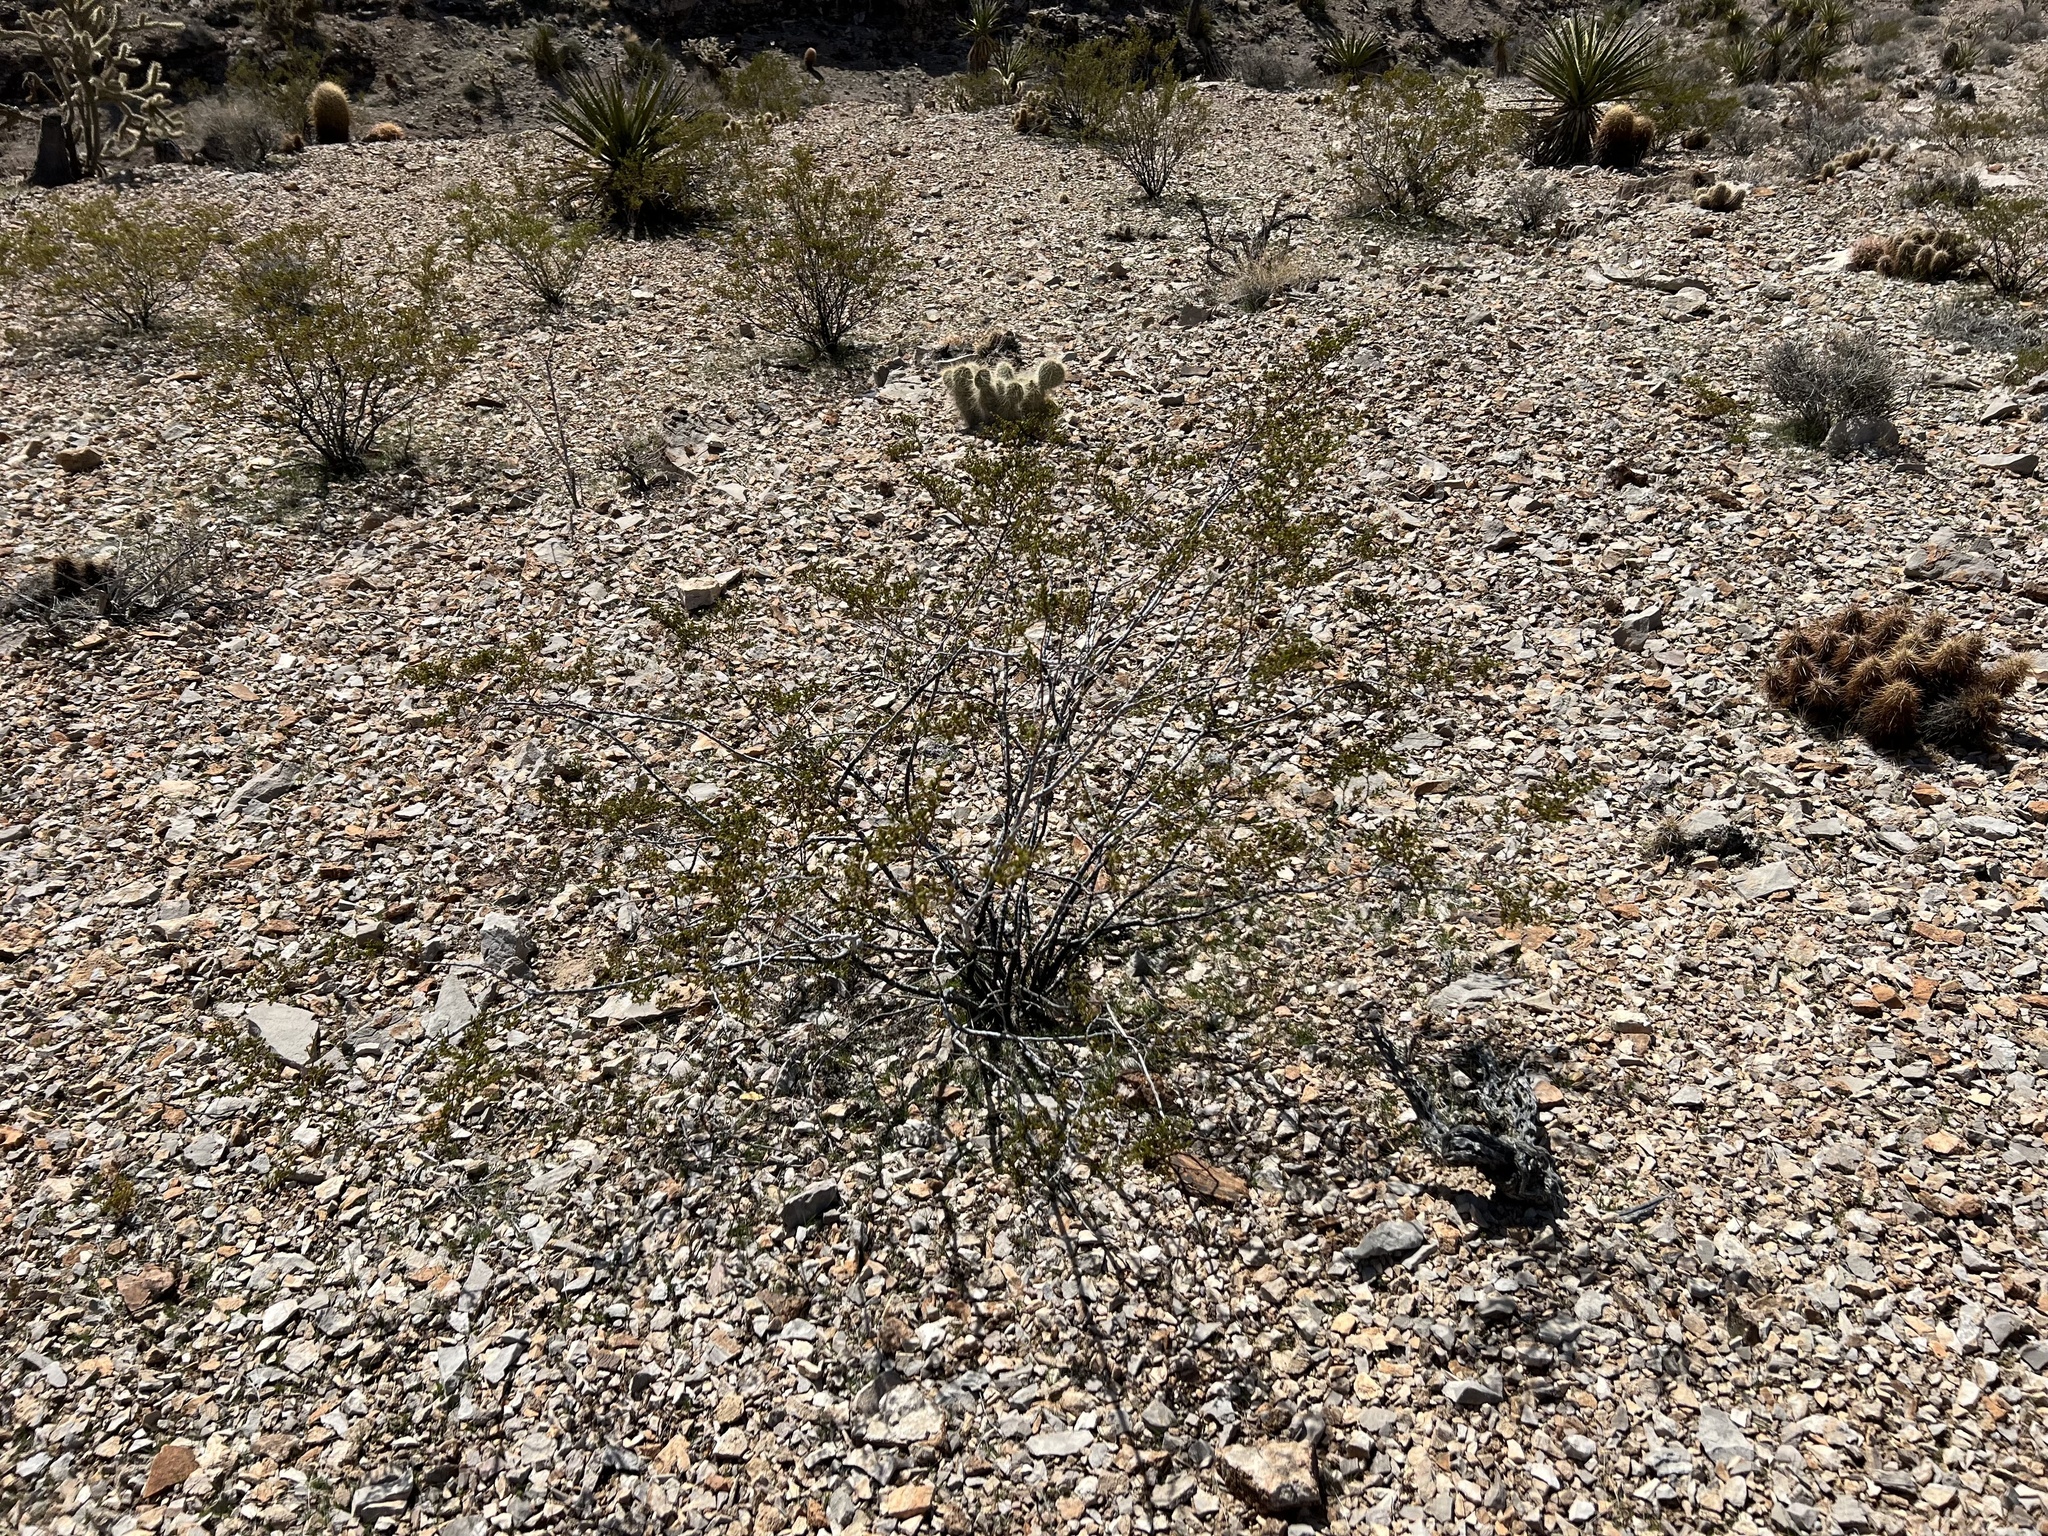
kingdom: Plantae
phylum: Tracheophyta
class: Magnoliopsida
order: Zygophyllales
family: Zygophyllaceae
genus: Larrea
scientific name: Larrea tridentata
